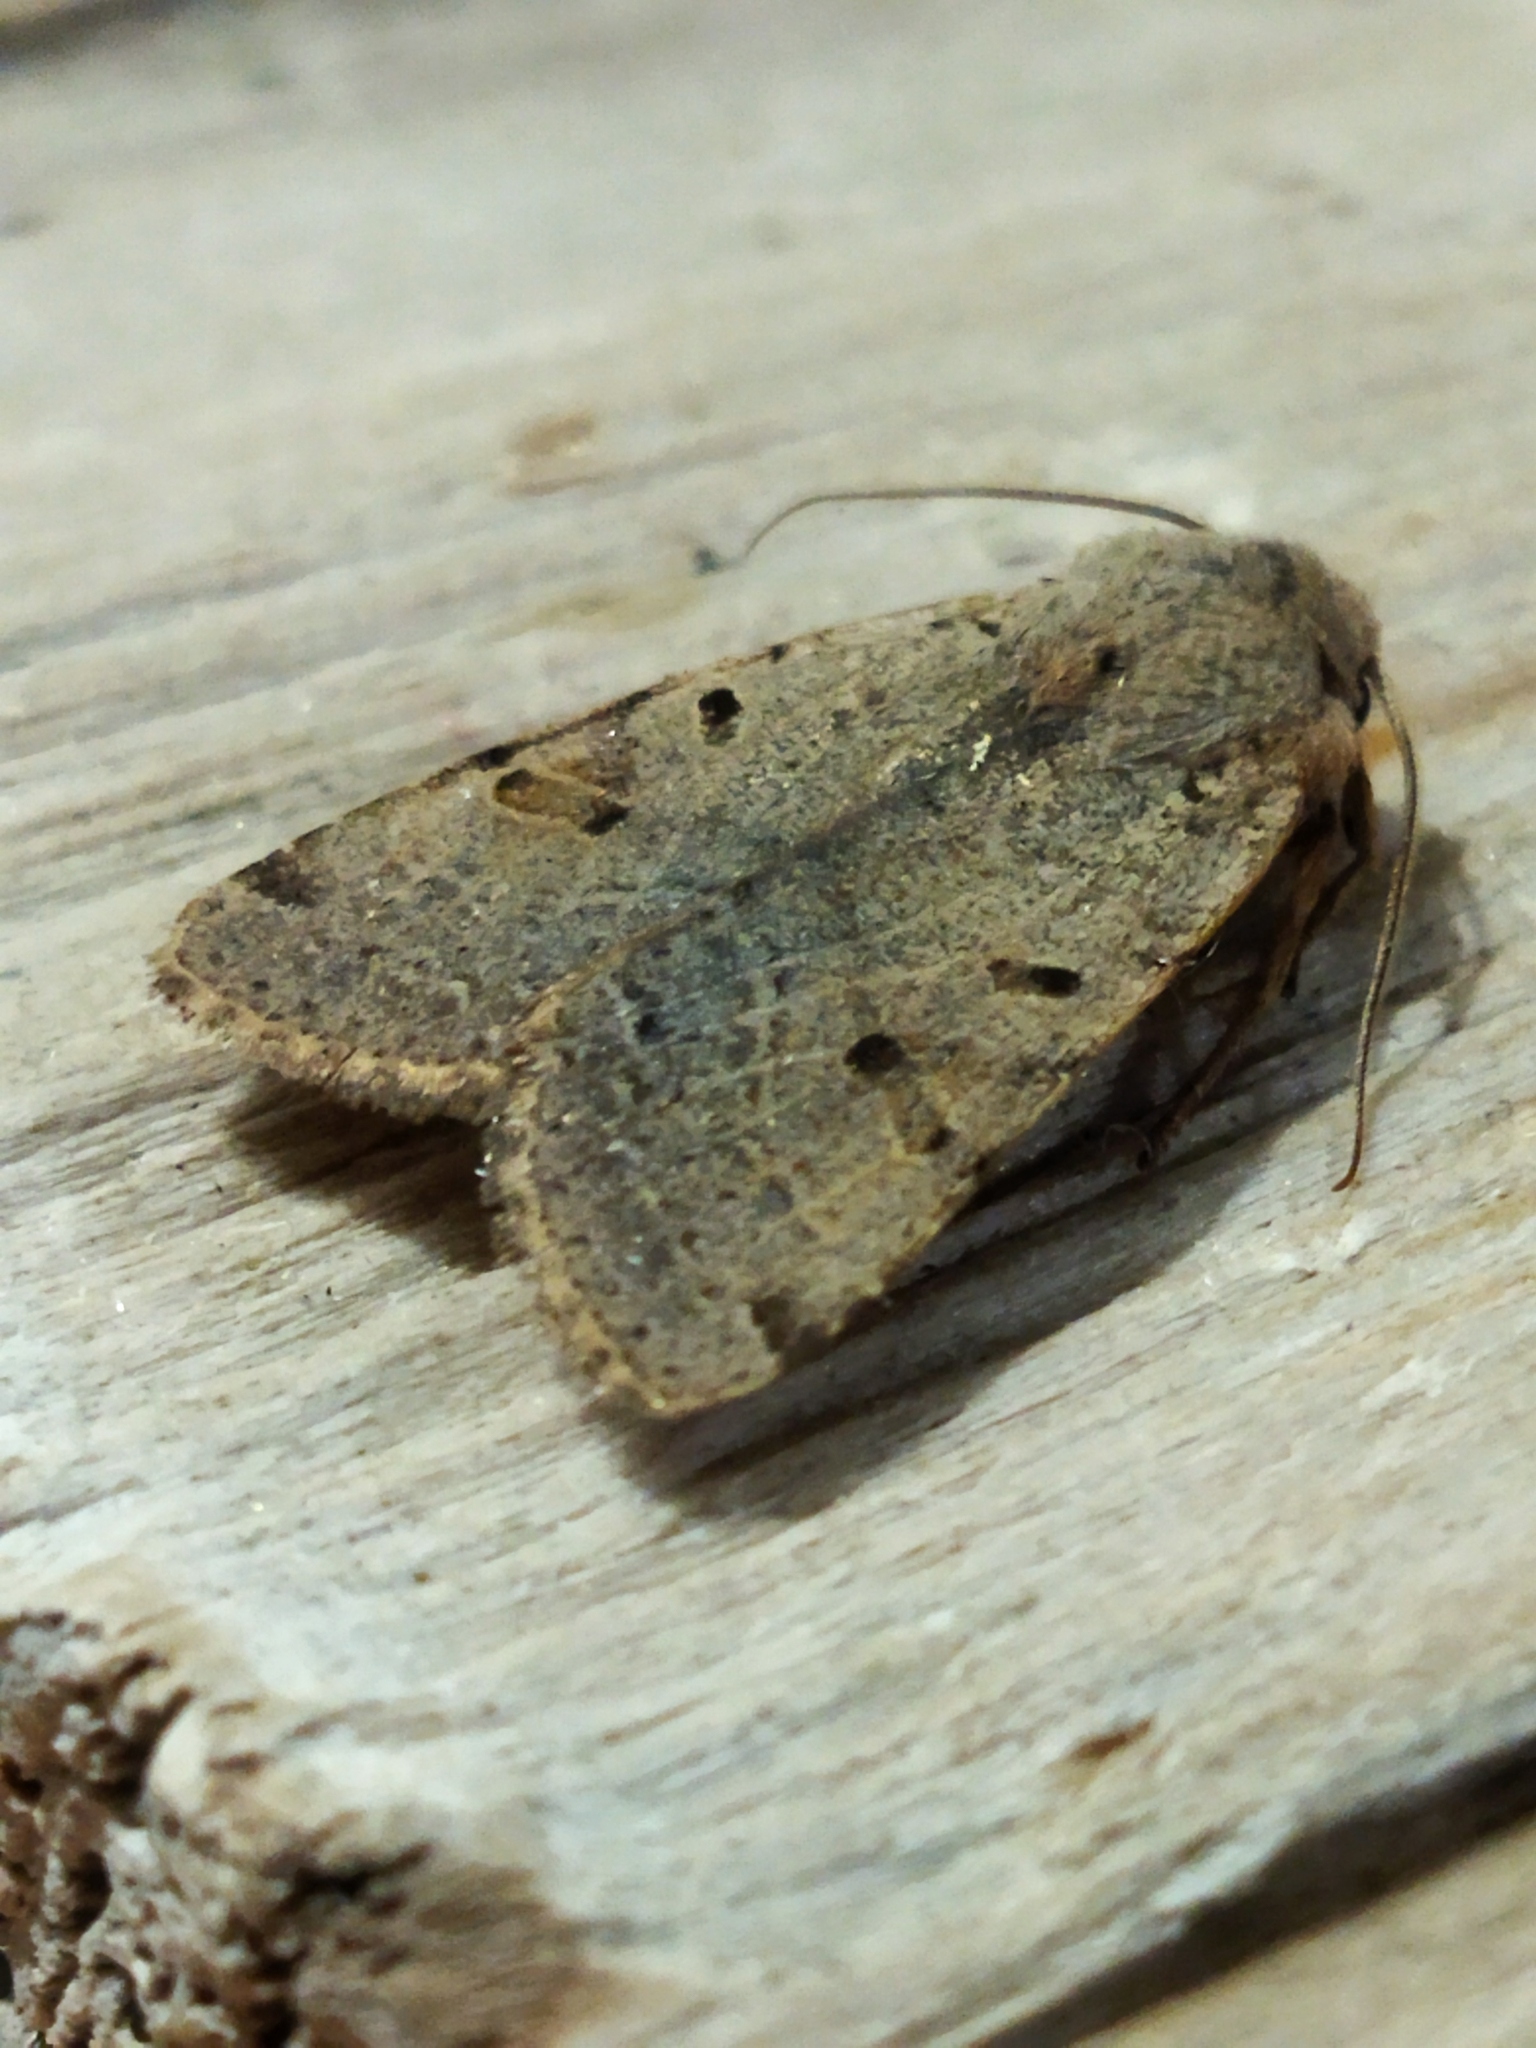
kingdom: Animalia
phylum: Arthropoda
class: Insecta
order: Lepidoptera
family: Noctuidae
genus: Agrochola
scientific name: Agrochola lychnidis
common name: Beaded chestnut
